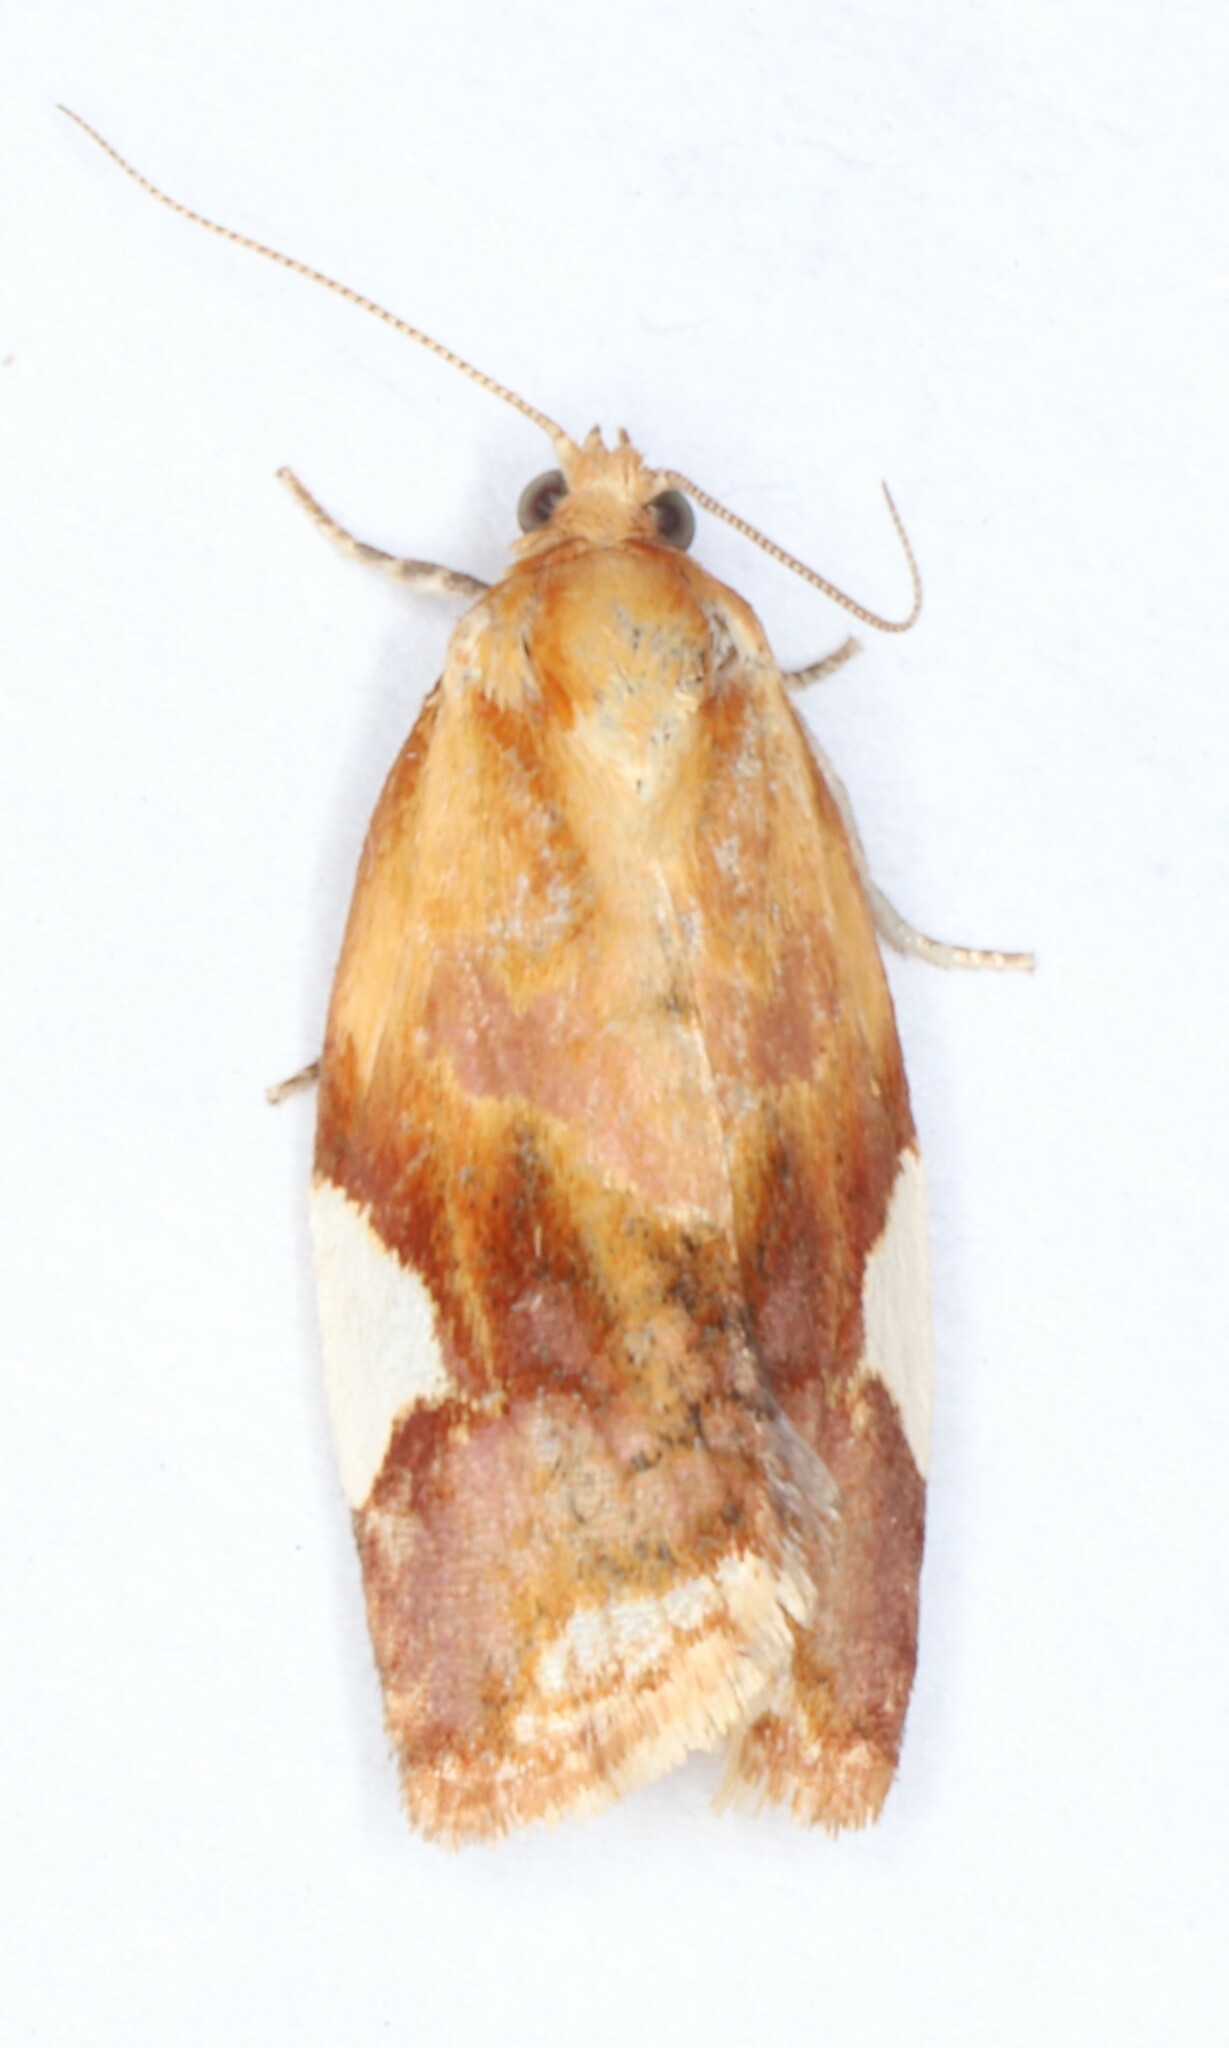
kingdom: Animalia
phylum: Arthropoda
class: Insecta
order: Lepidoptera
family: Tortricidae
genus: Clepsis
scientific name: Clepsis persicana
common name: White triangle tortrix
